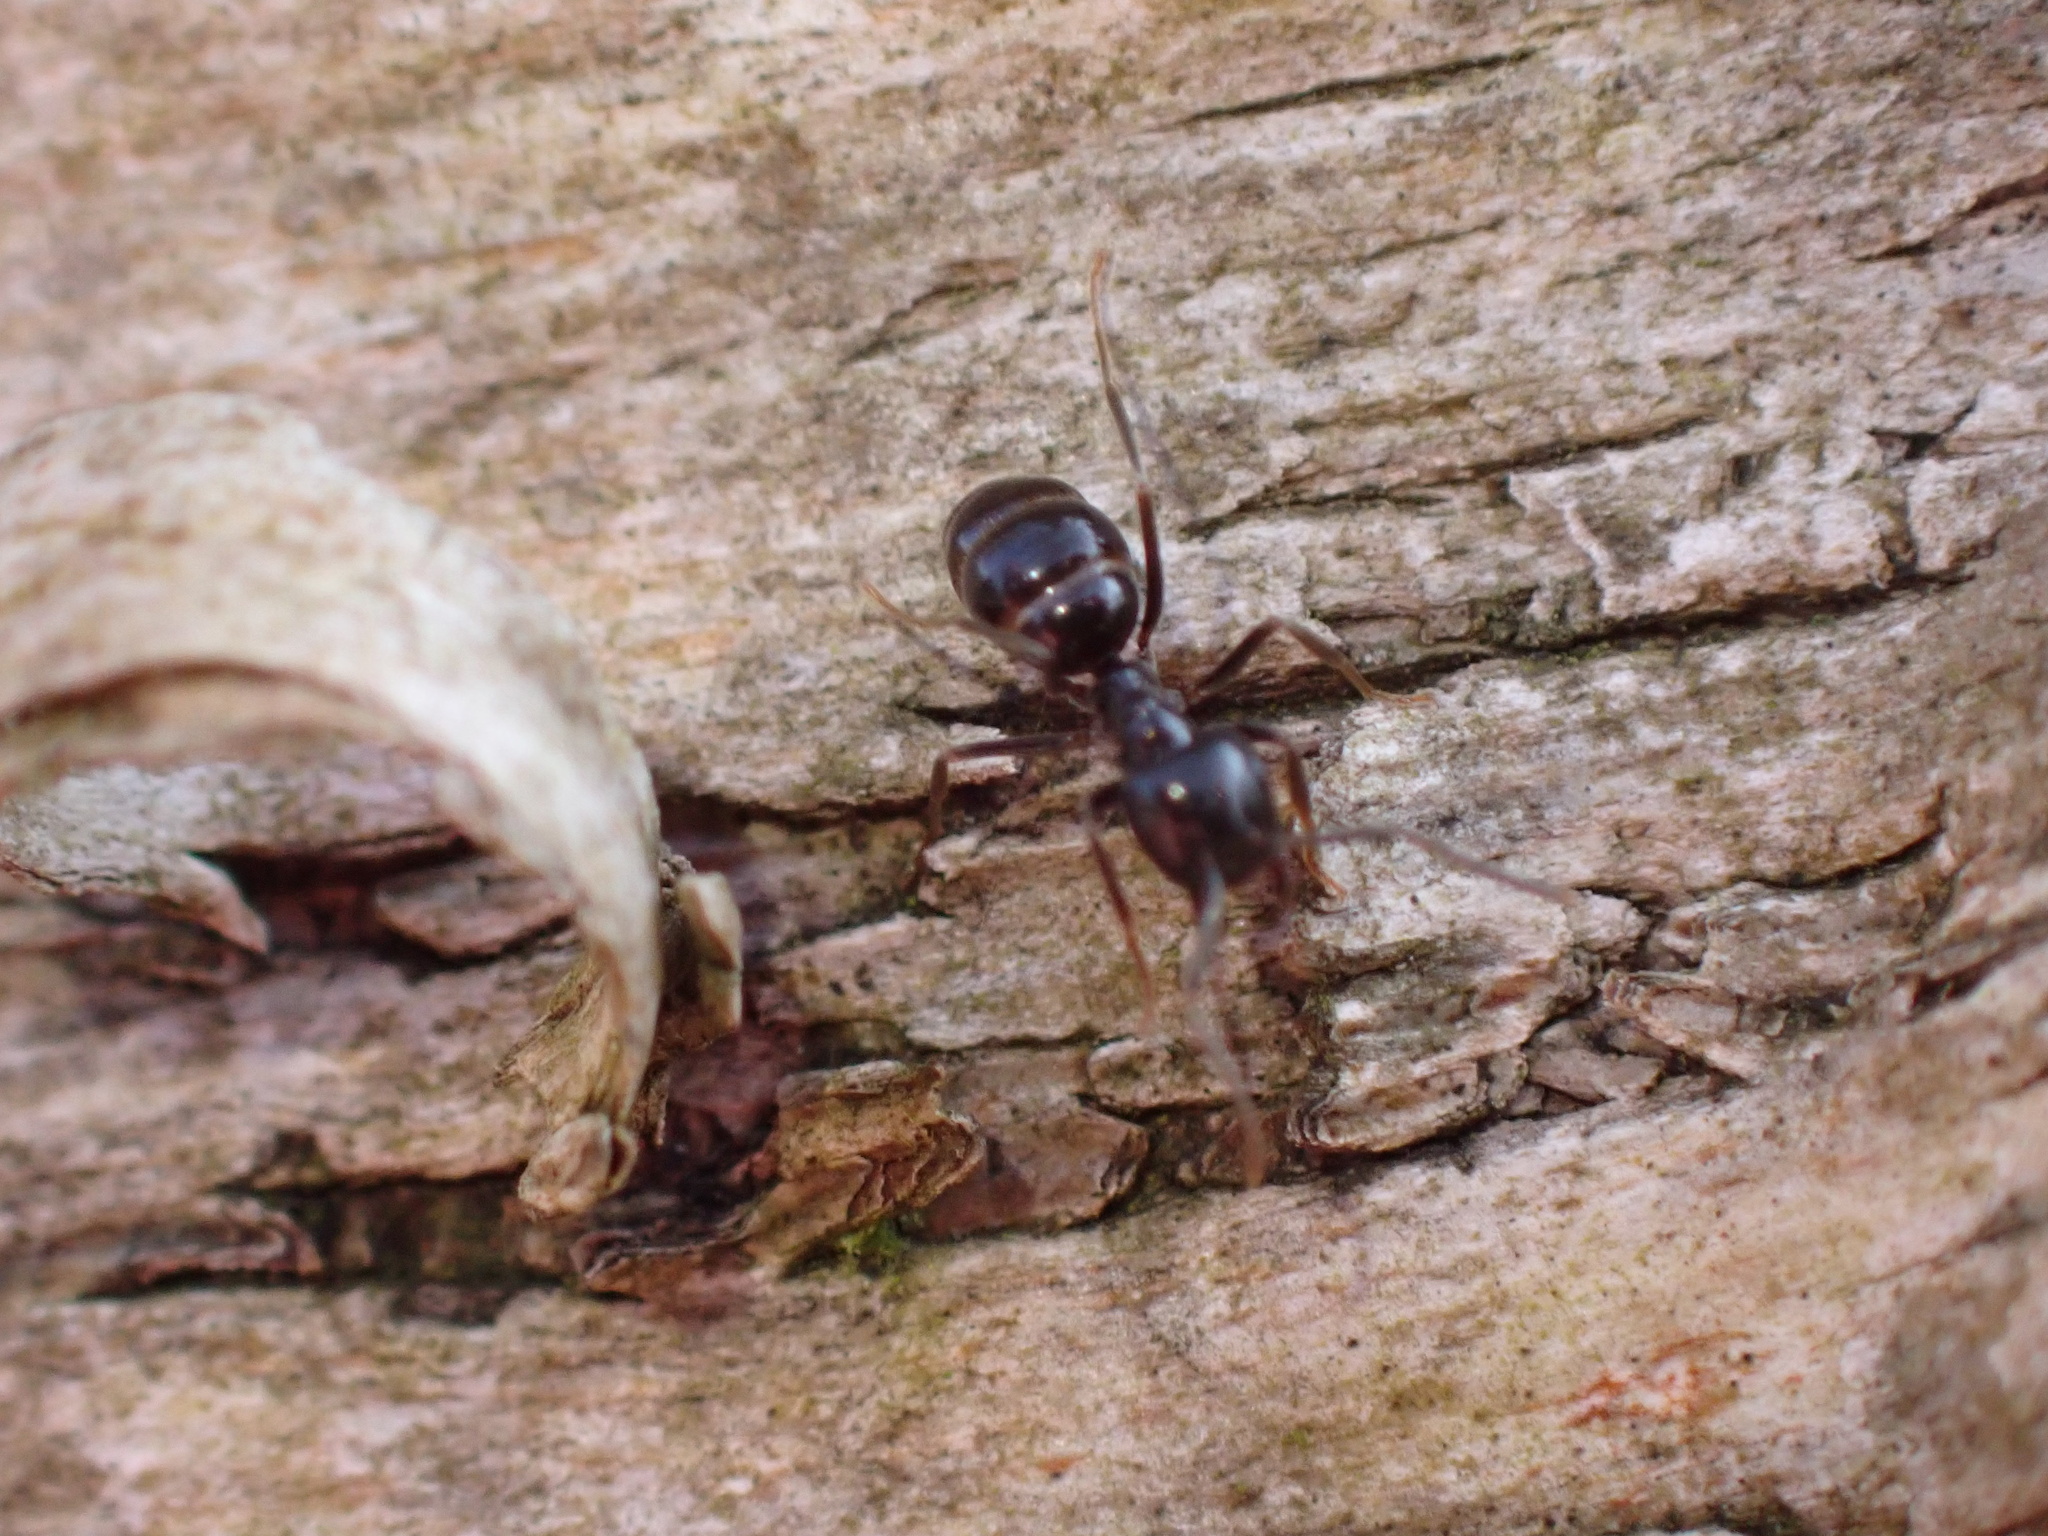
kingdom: Animalia
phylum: Arthropoda
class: Insecta
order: Hymenoptera
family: Formicidae
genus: Lasius
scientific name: Lasius fuliginosus
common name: Jet ant
